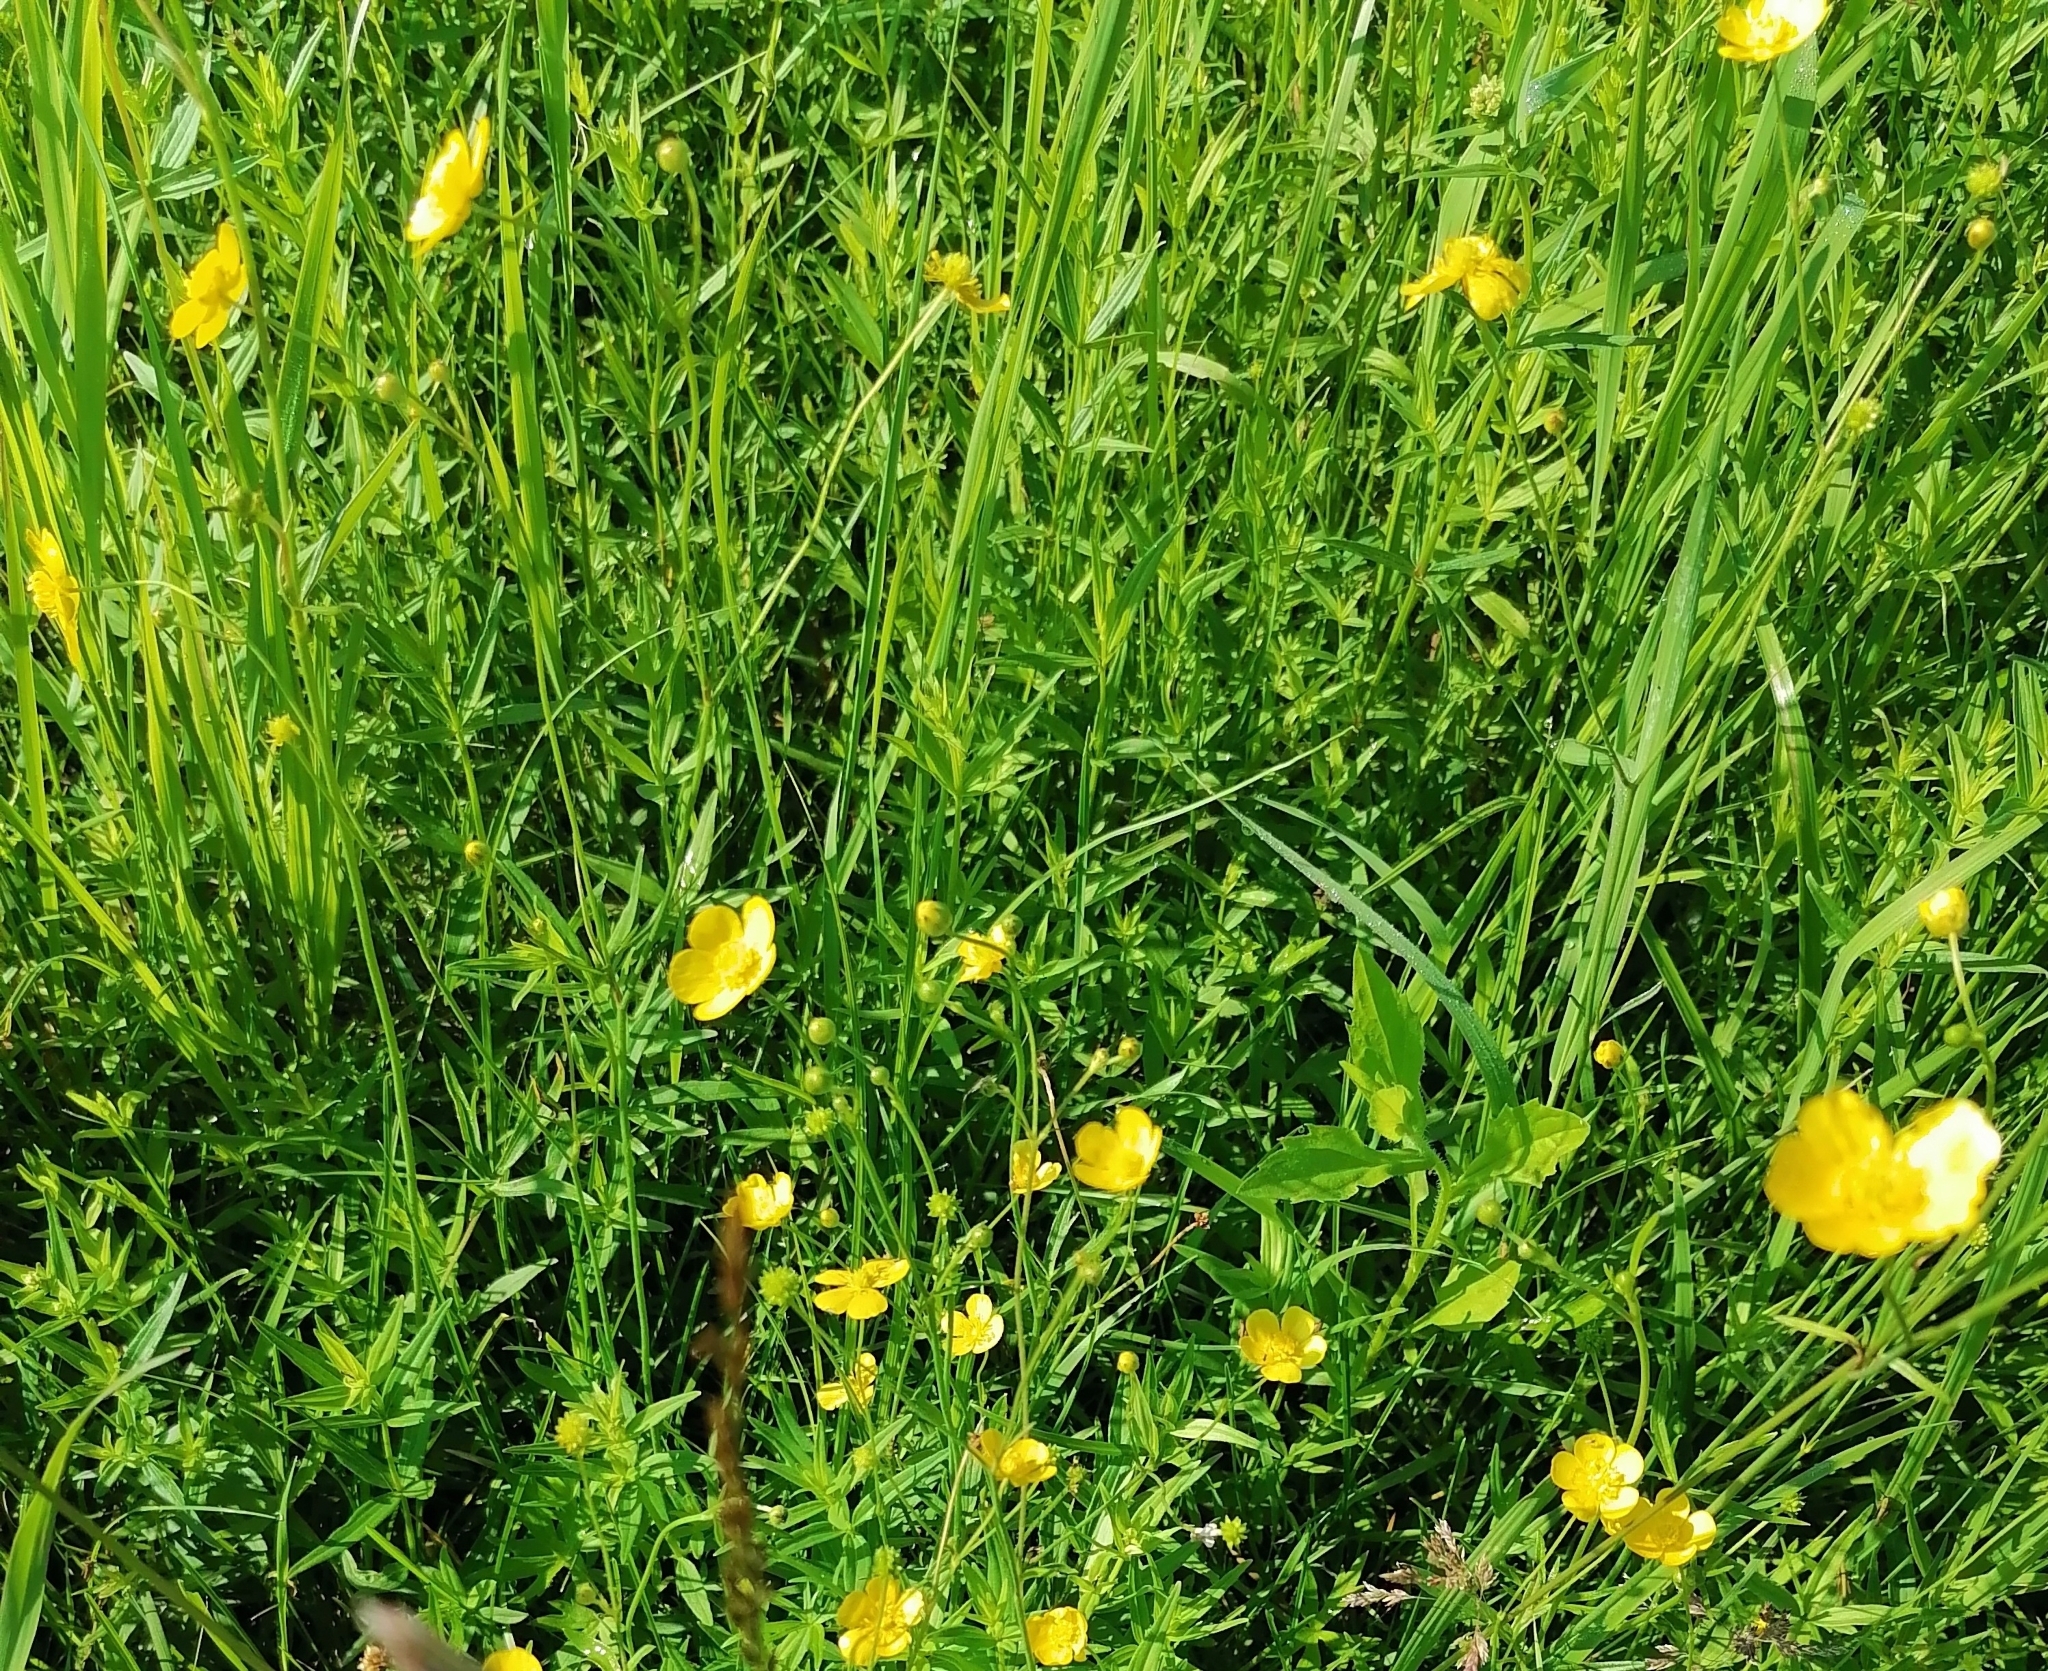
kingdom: Plantae
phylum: Tracheophyta
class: Magnoliopsida
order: Ranunculales
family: Ranunculaceae
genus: Ranunculus
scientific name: Ranunculus acris
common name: Meadow buttercup
